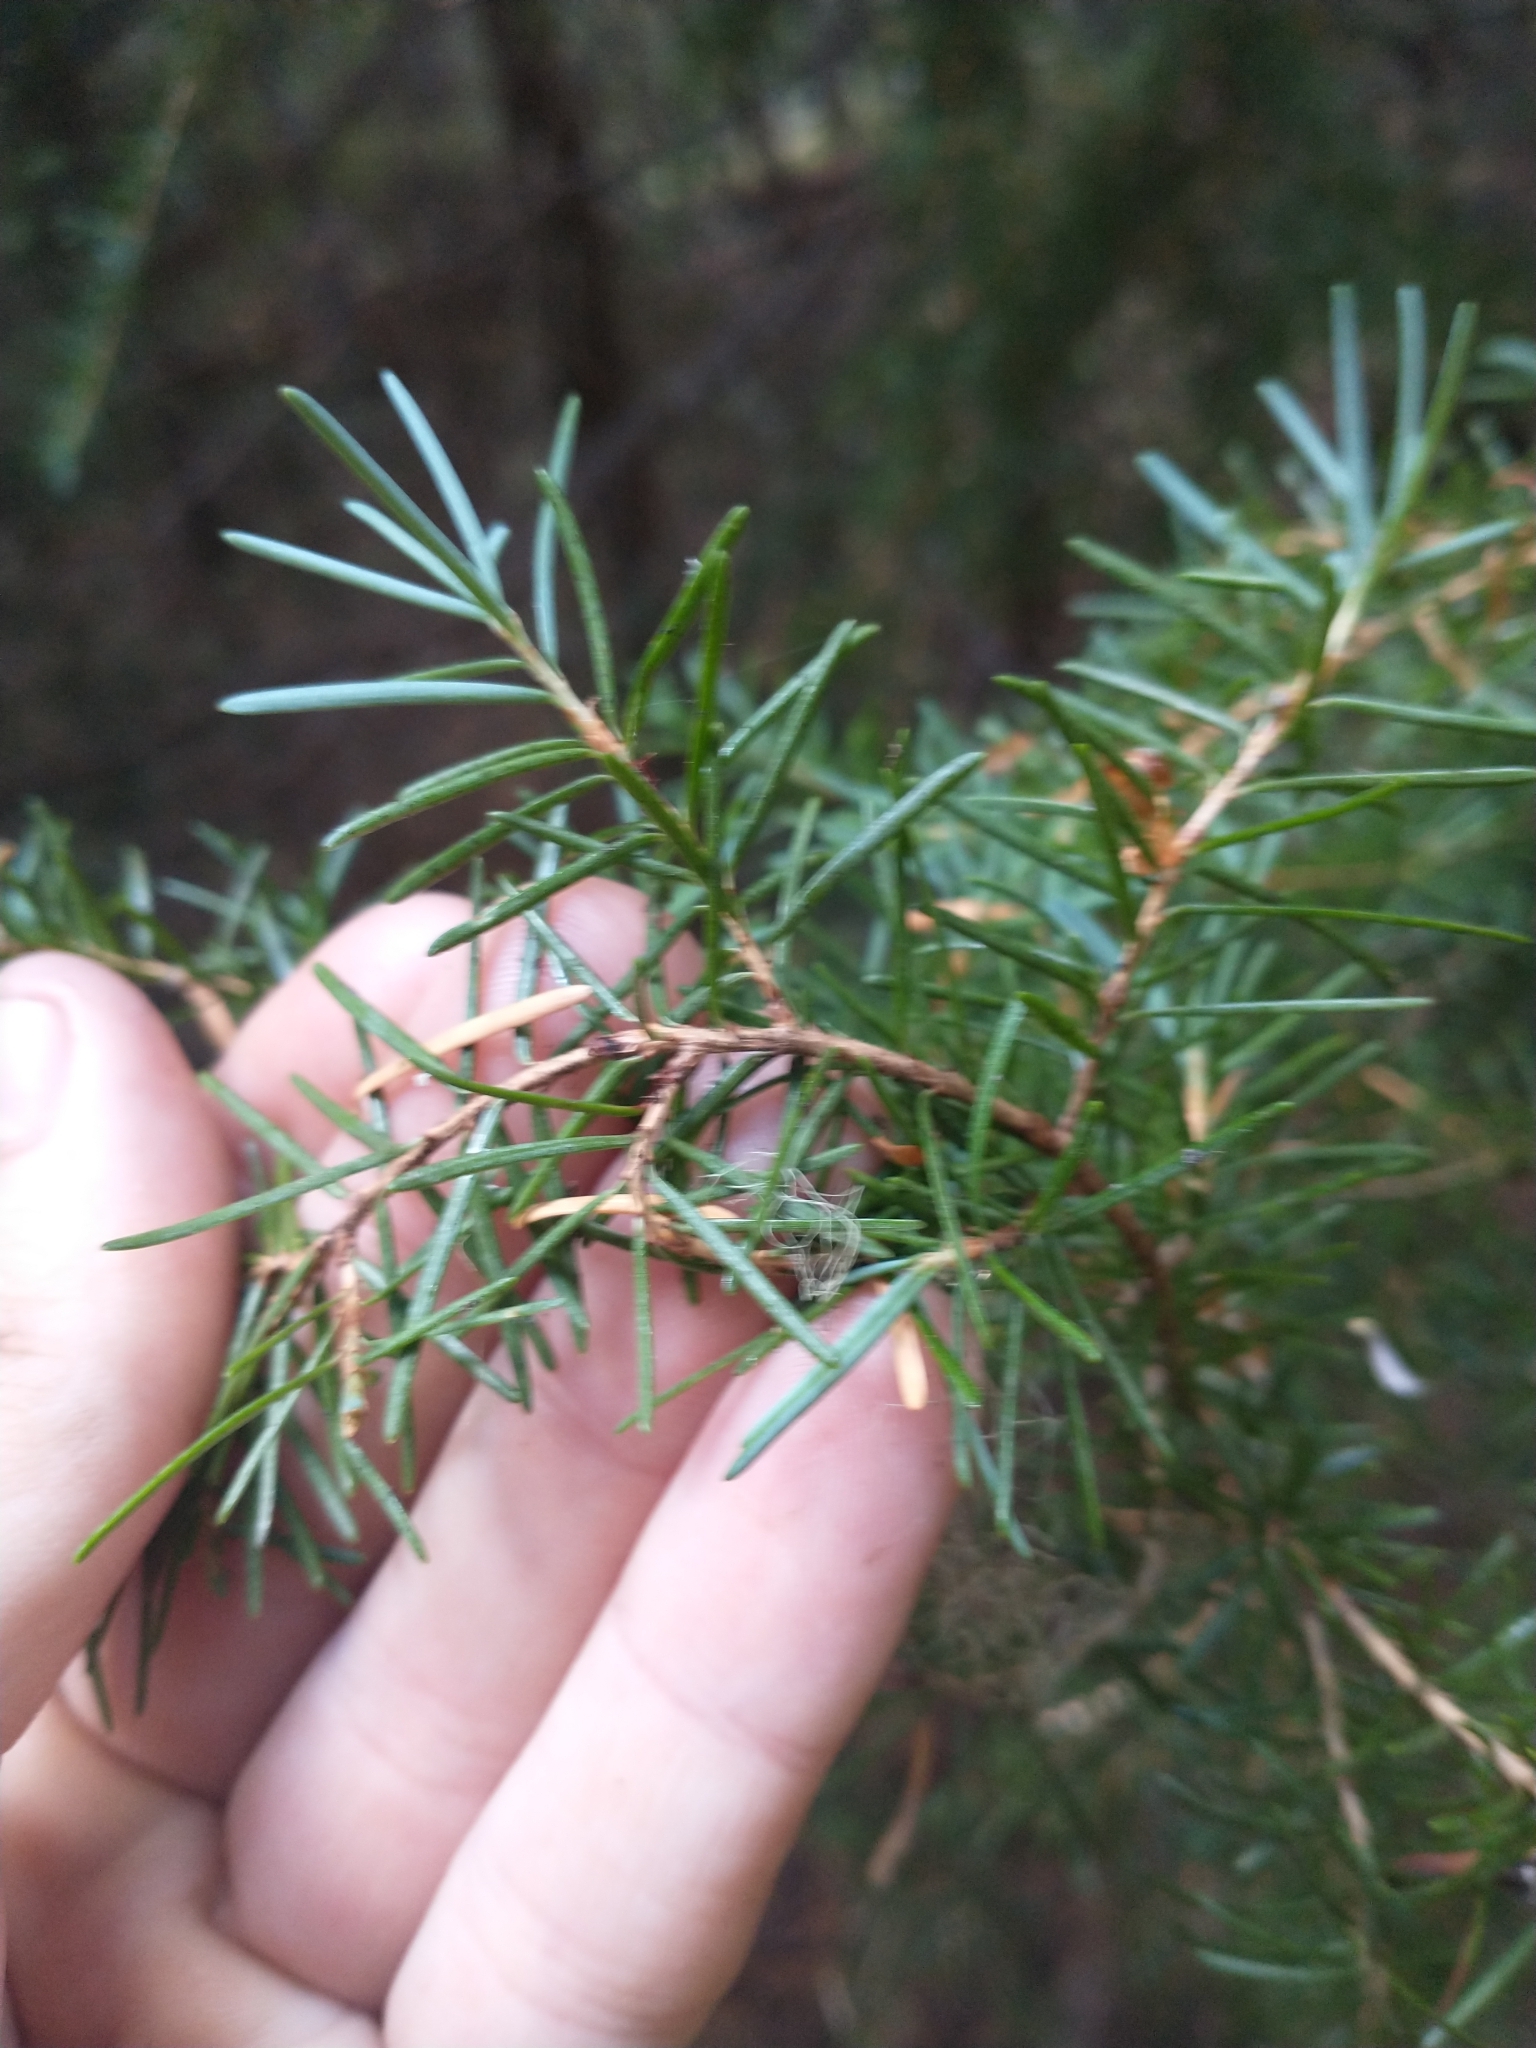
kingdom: Plantae
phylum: Tracheophyta
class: Pinopsida
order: Pinales
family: Pinaceae
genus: Tsuga
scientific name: Tsuga mertensiana
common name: Mountain hemlock
